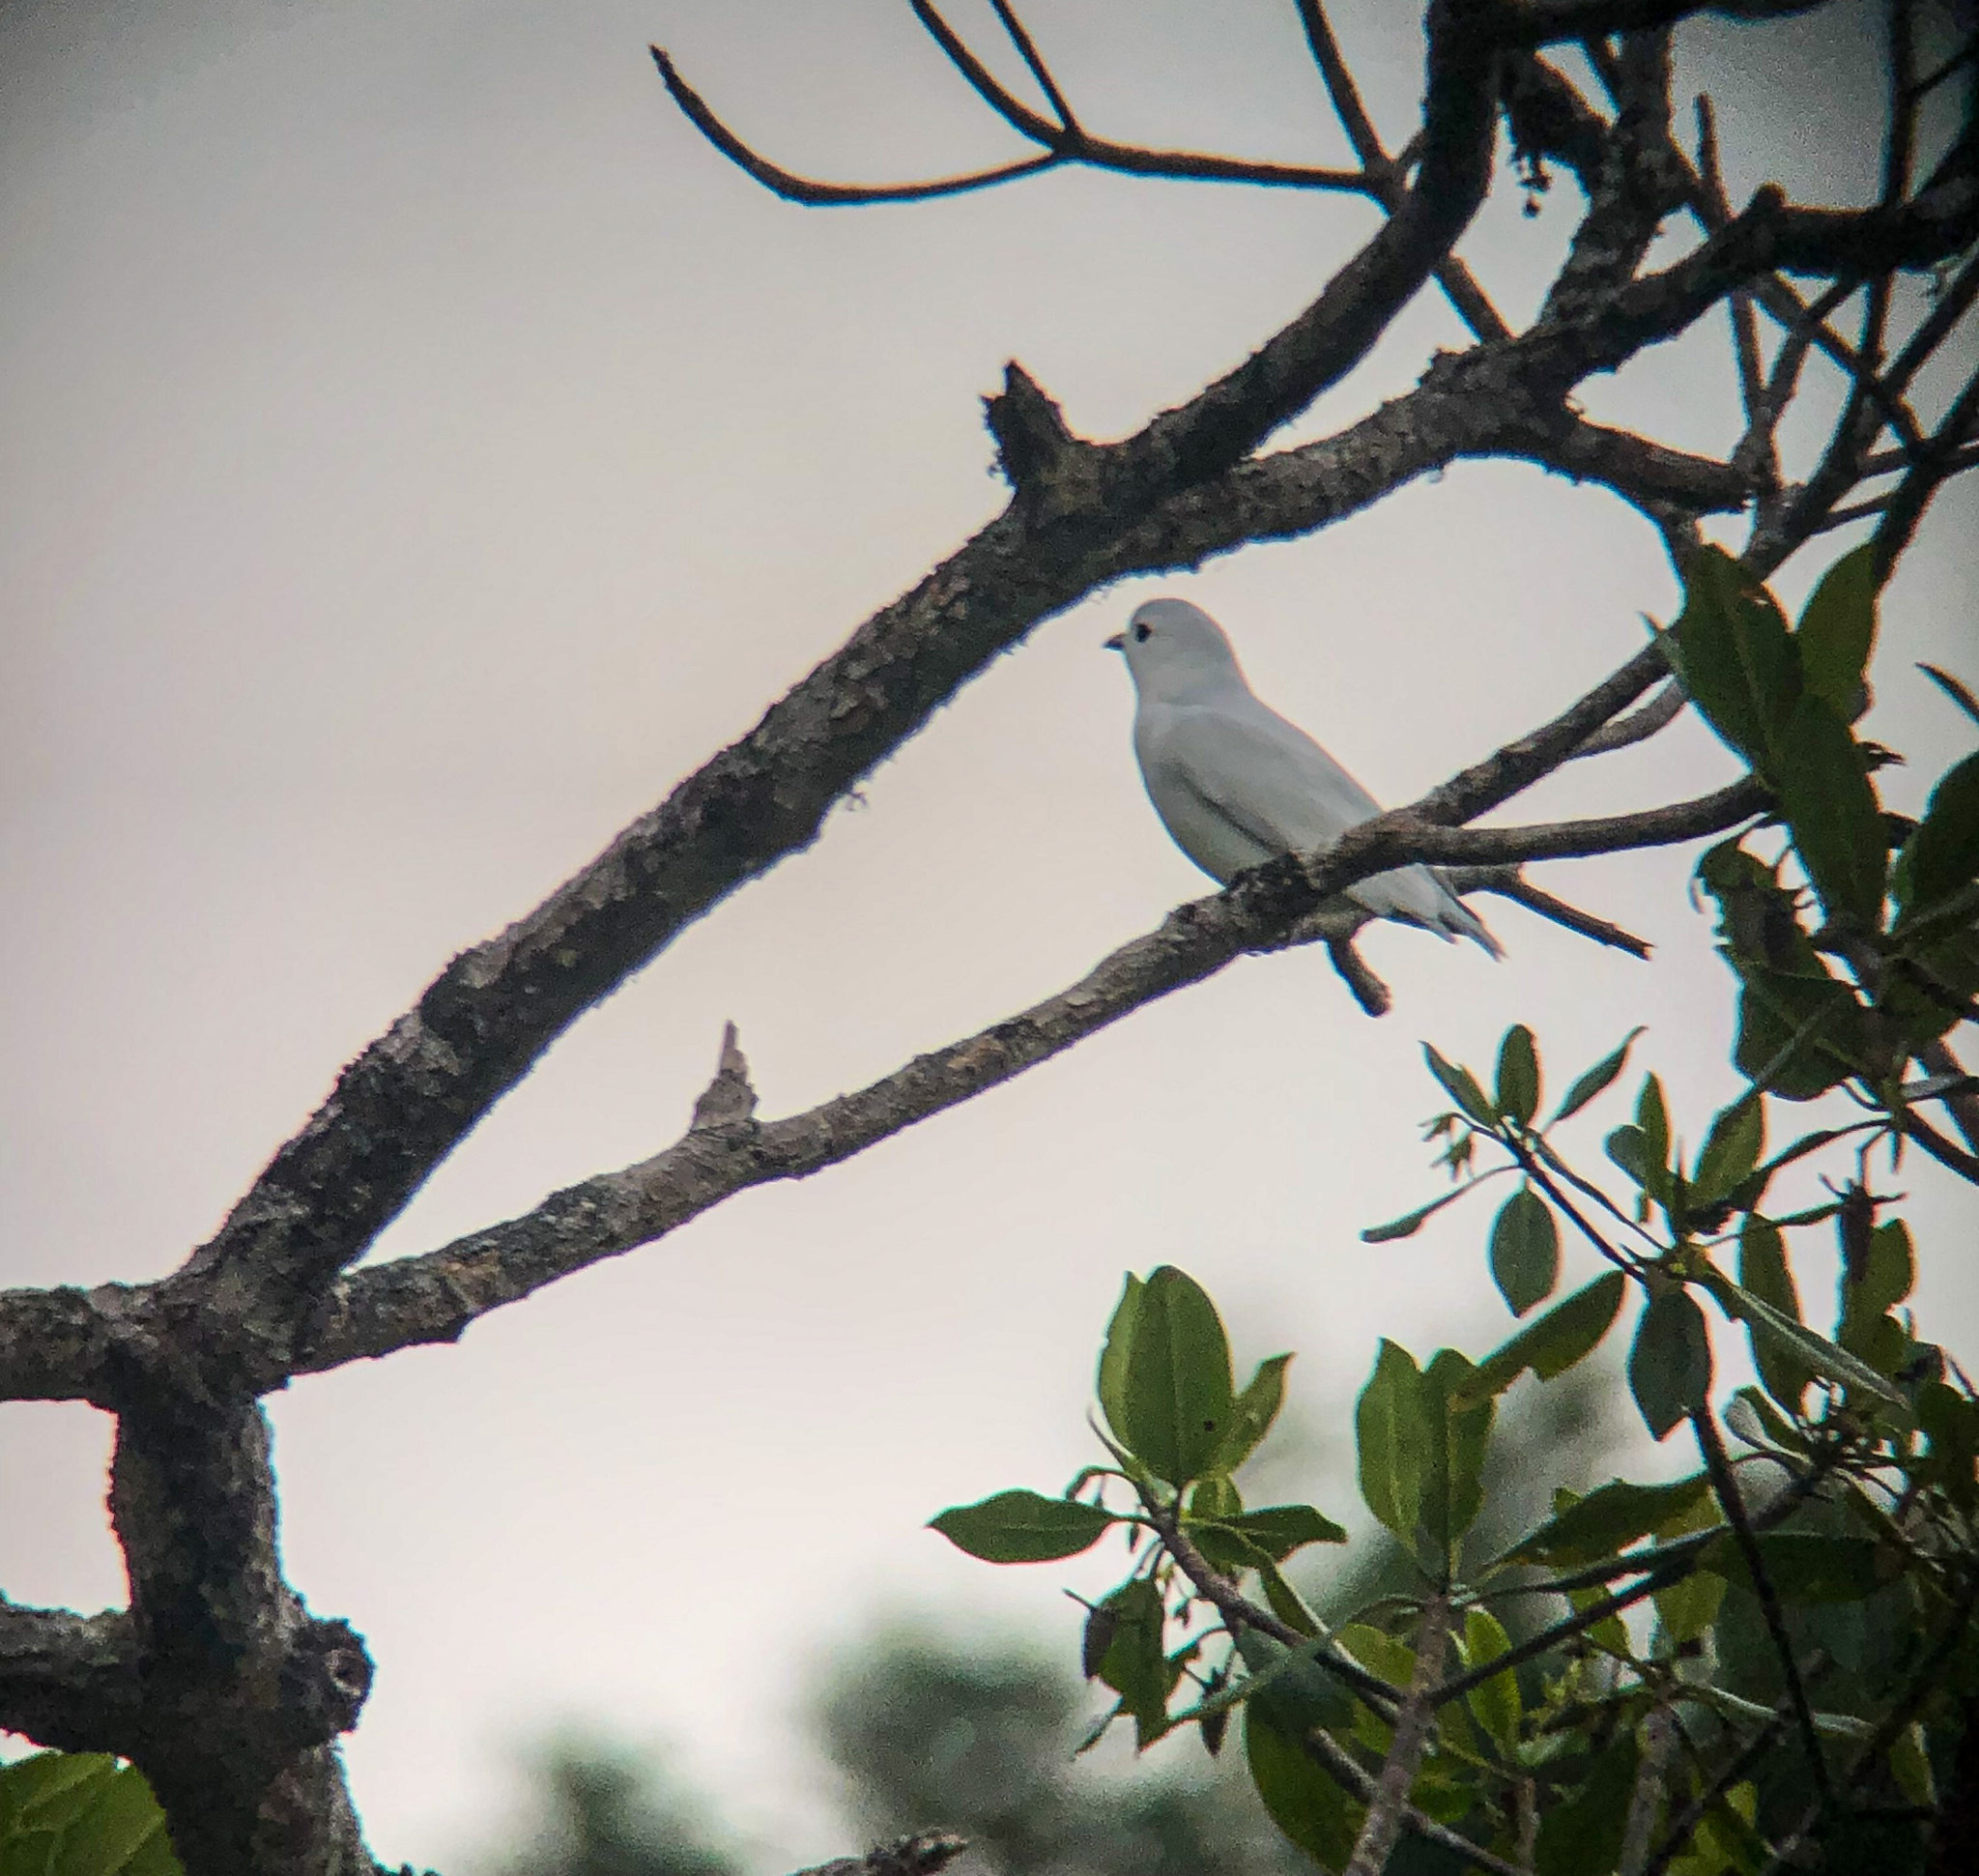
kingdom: Animalia
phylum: Chordata
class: Aves
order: Passeriformes
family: Cotingidae
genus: Carpodectes
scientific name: Carpodectes nitidus
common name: Snowy cotinga
